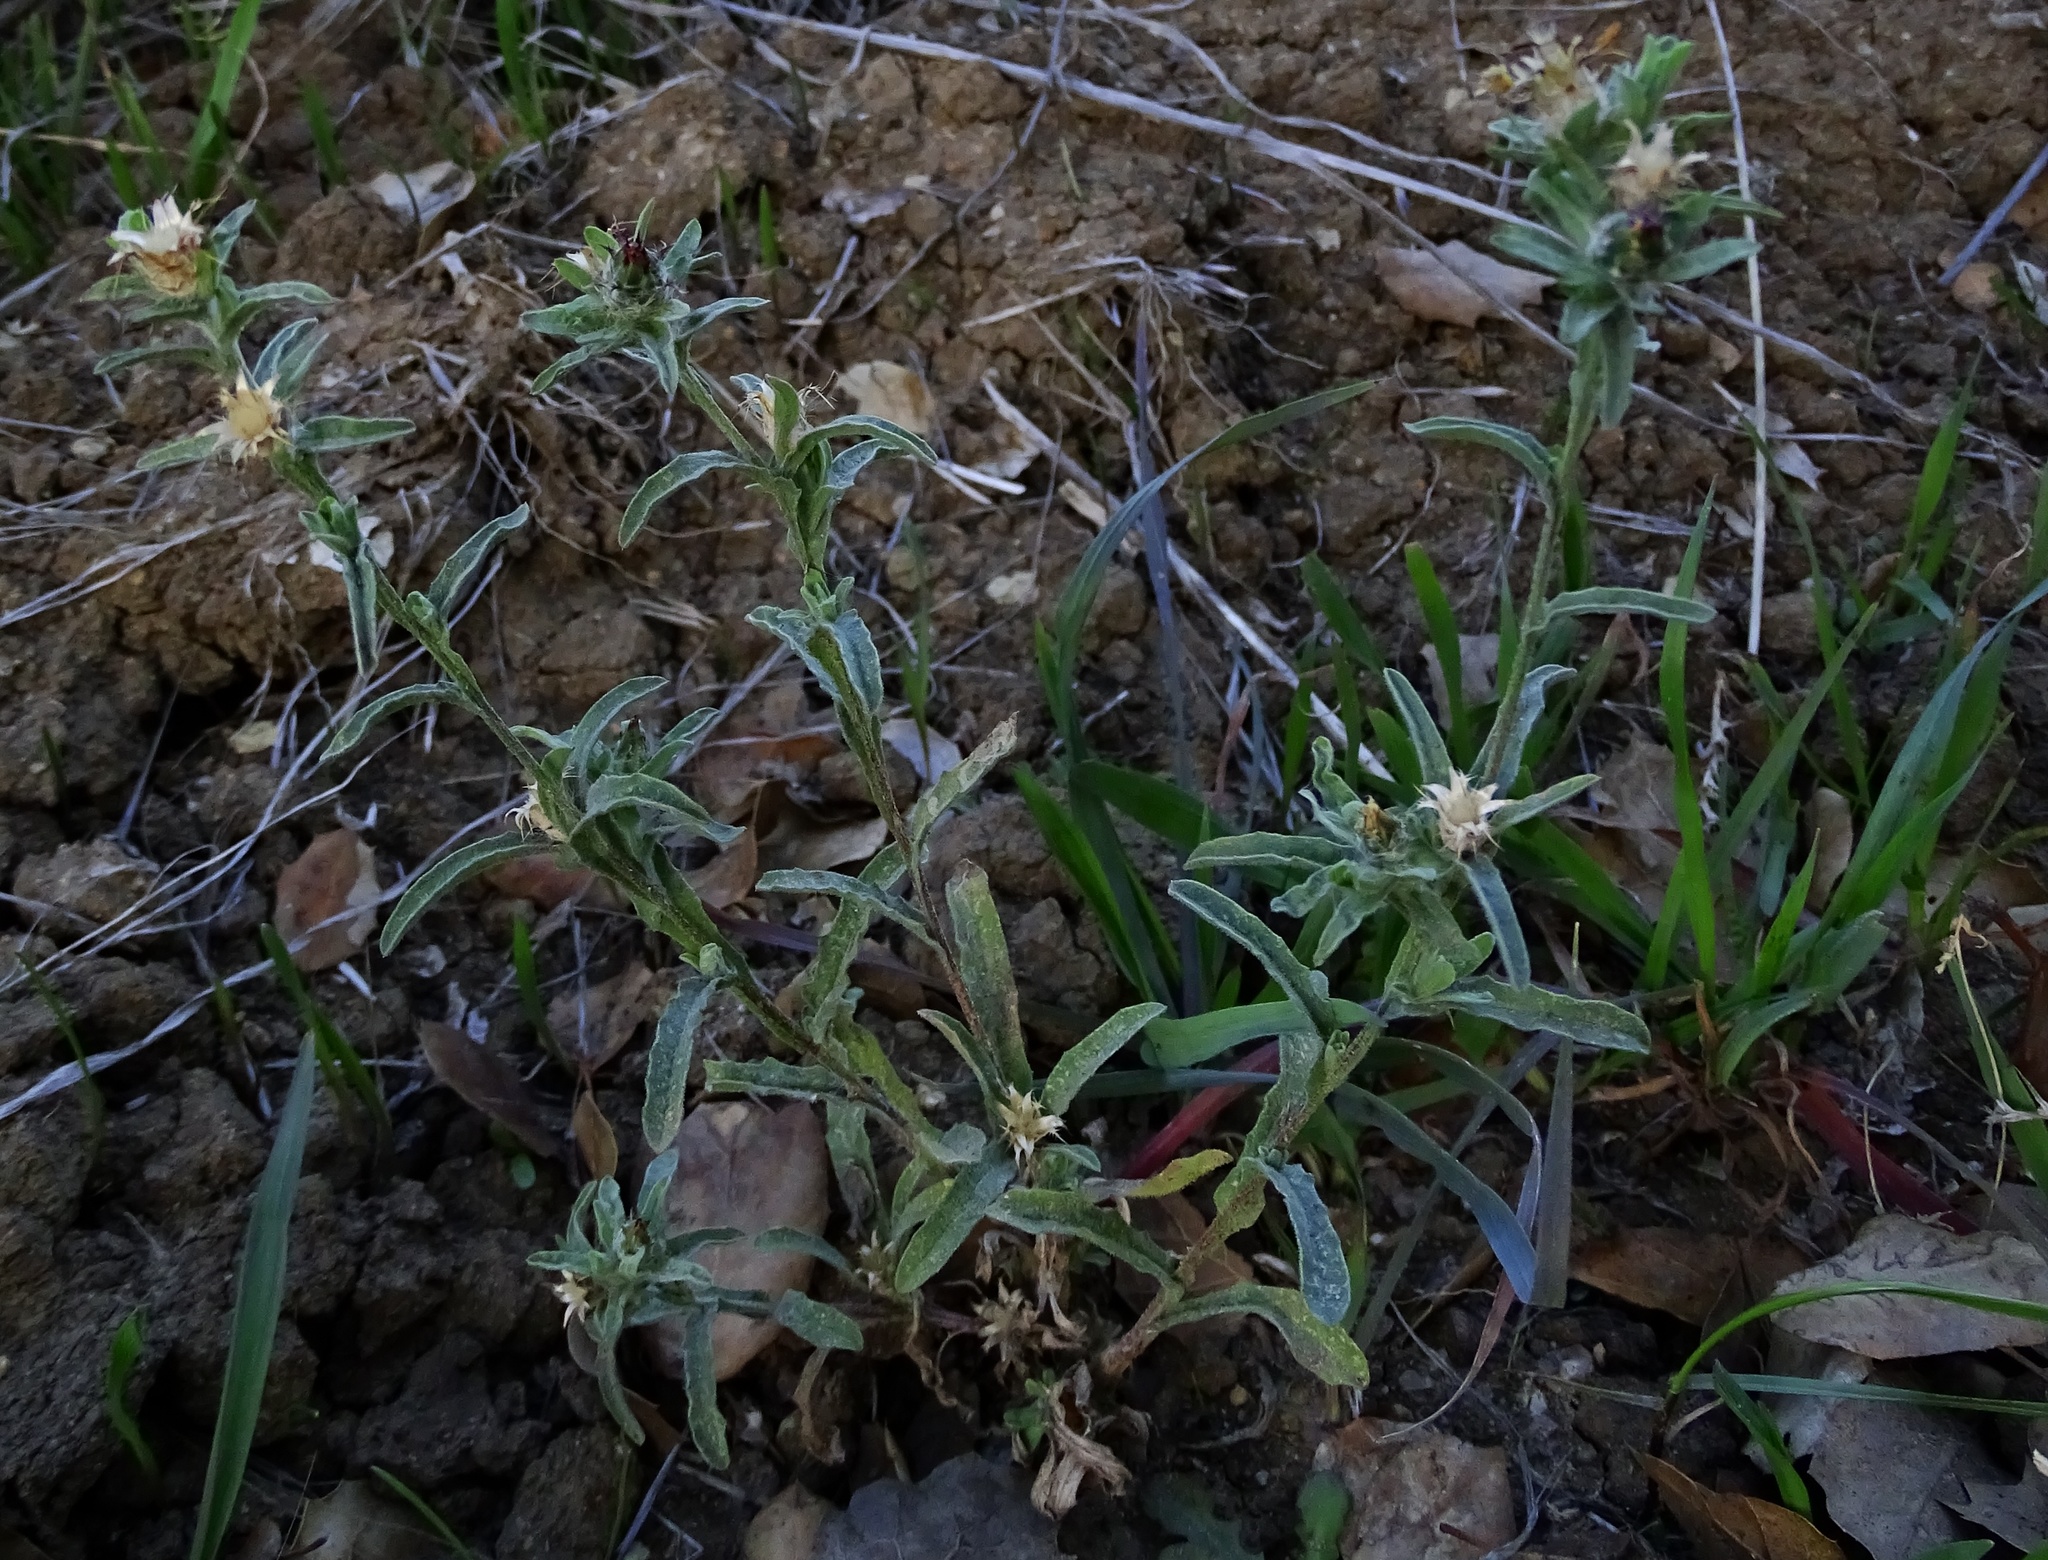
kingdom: Plantae
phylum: Tracheophyta
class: Magnoliopsida
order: Asterales
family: Asteraceae
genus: Centaurea
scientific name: Centaurea melitensis
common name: Maltese star-thistle
